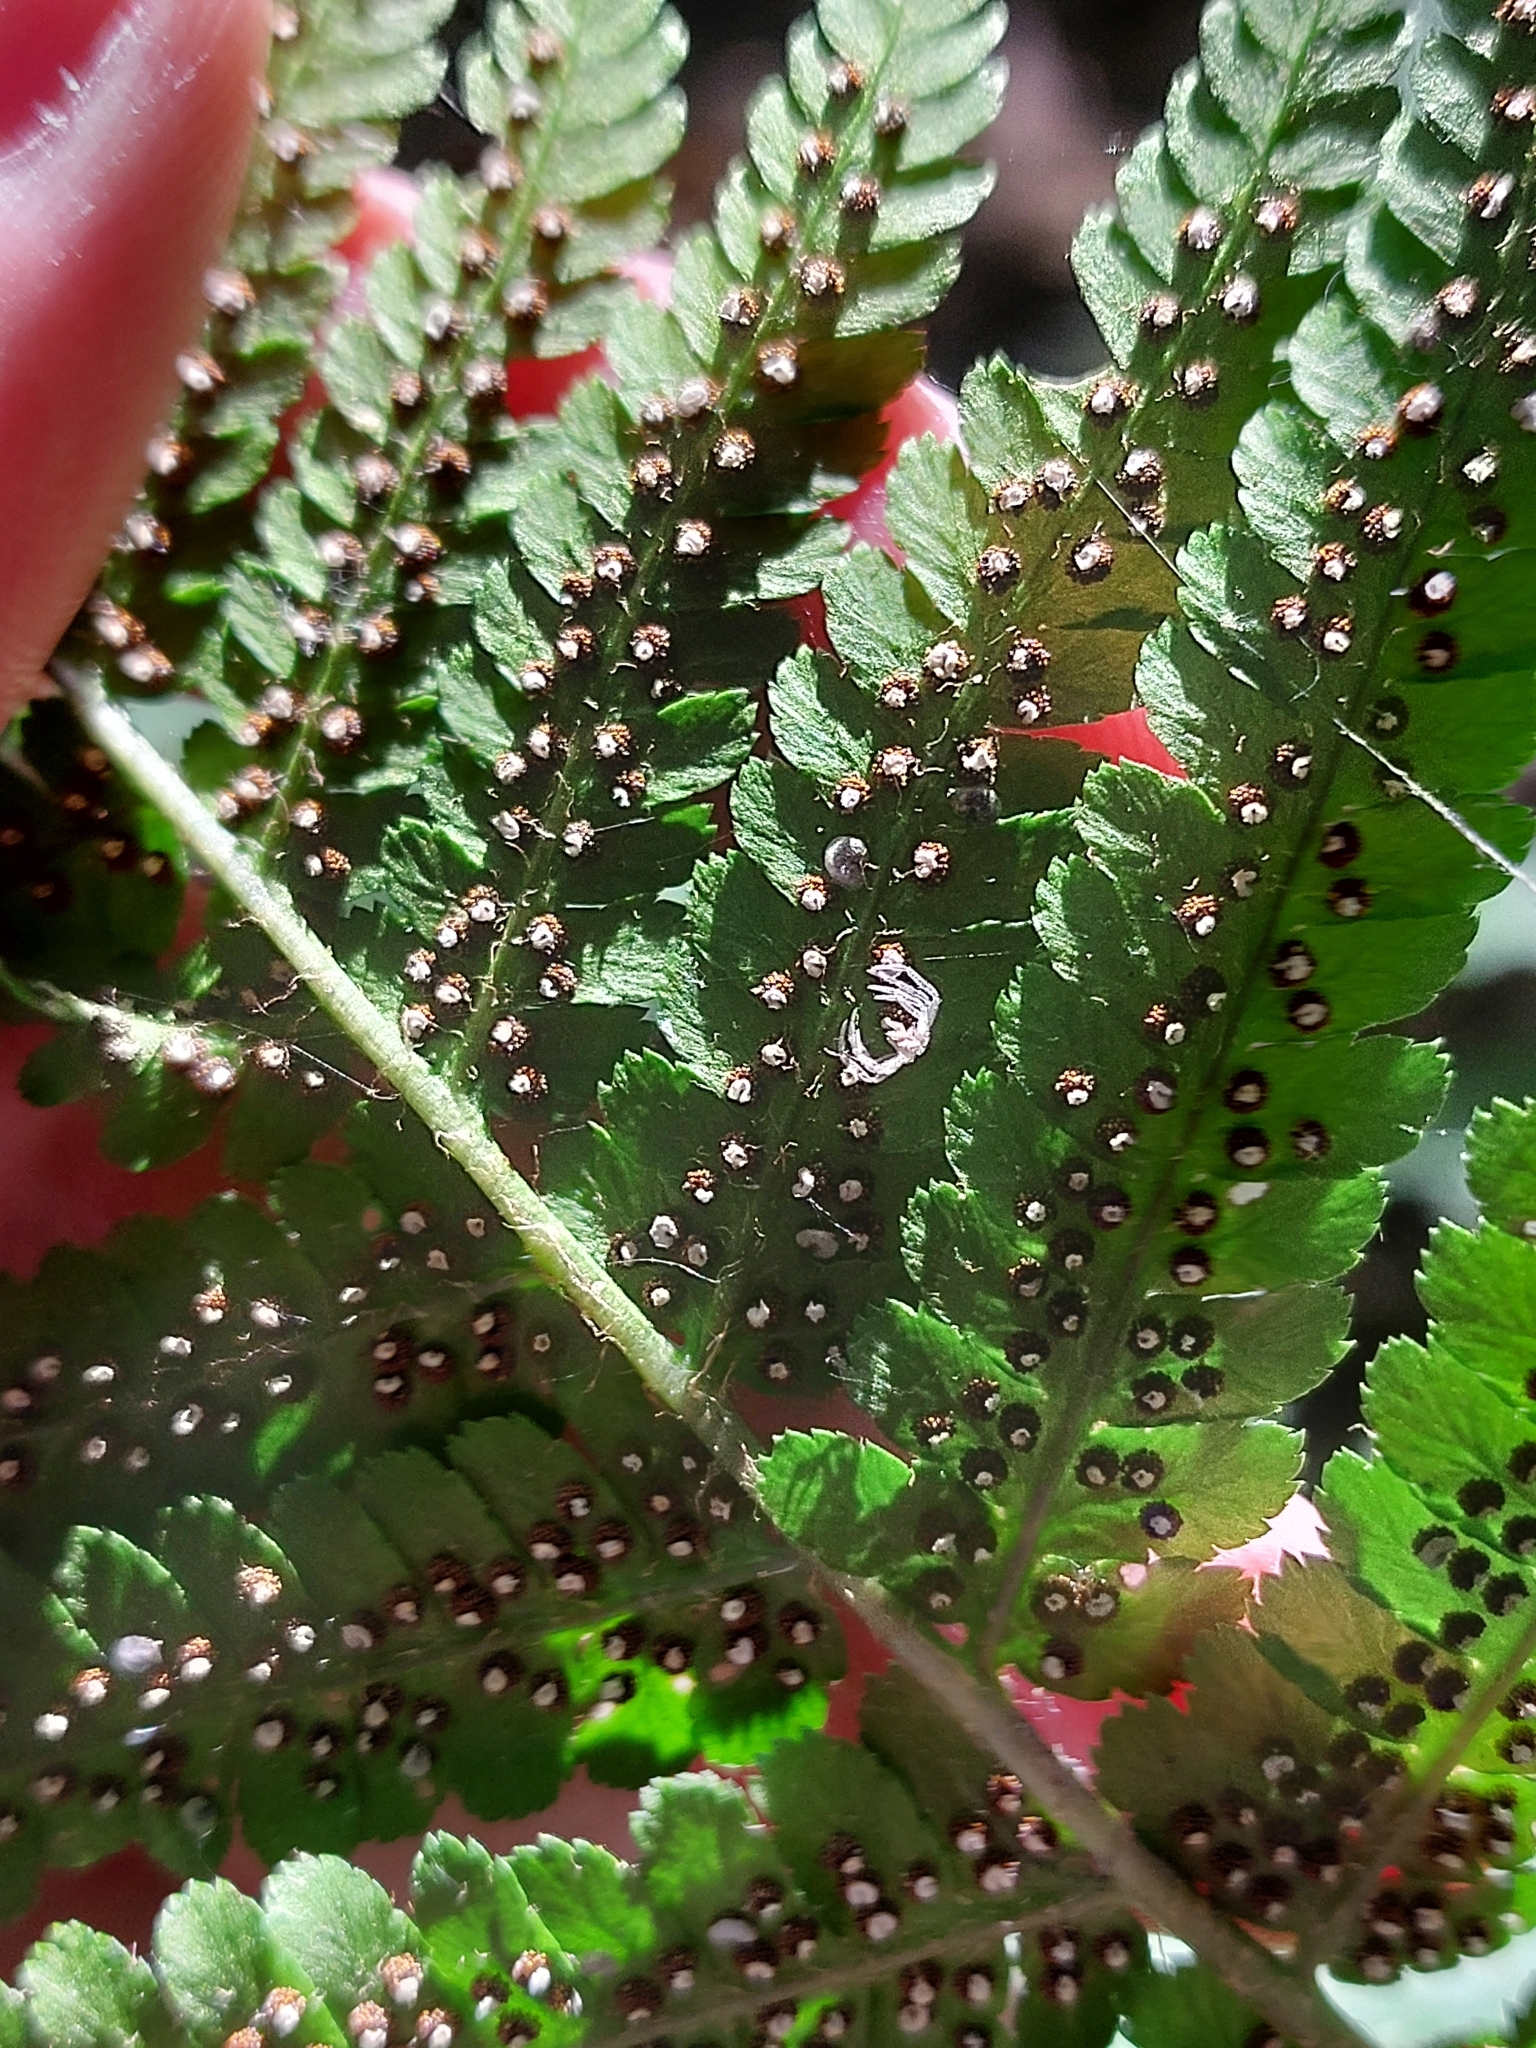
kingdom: Plantae
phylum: Tracheophyta
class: Polypodiopsida
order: Polypodiales
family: Dryopteridaceae
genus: Dryopteris
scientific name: Dryopteris filix-mas
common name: Male fern
